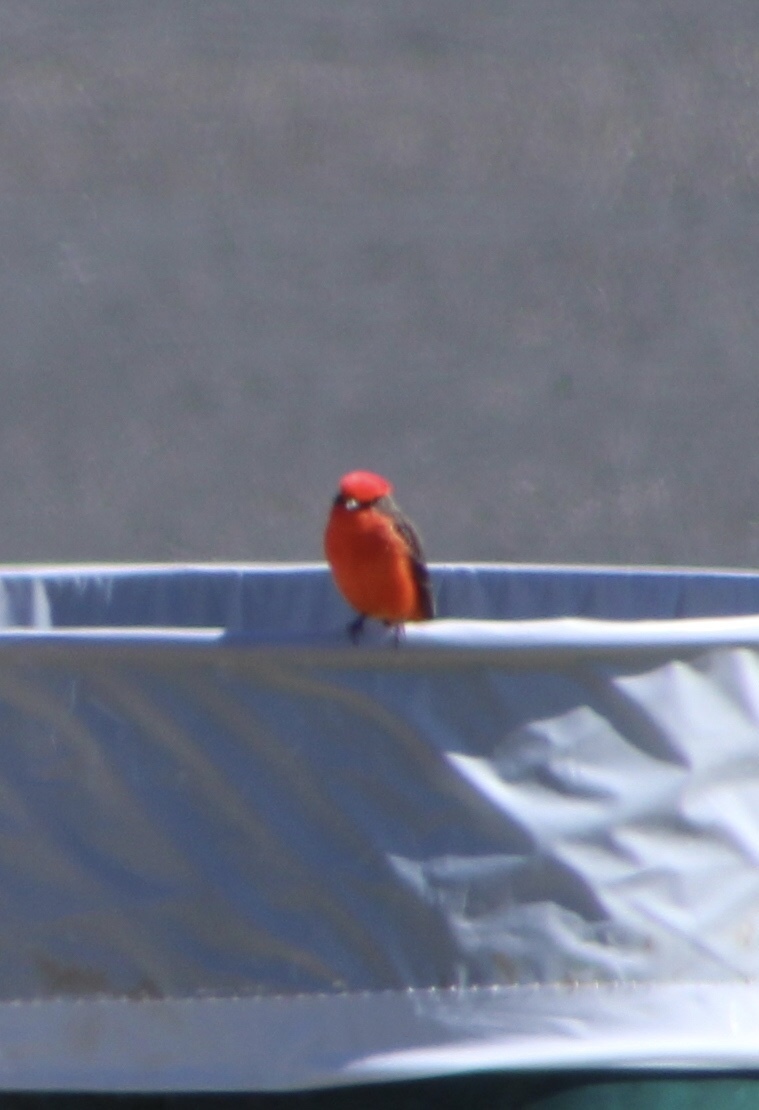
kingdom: Animalia
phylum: Chordata
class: Aves
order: Passeriformes
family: Tyrannidae
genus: Pyrocephalus
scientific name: Pyrocephalus rubinus
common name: Vermilion flycatcher
